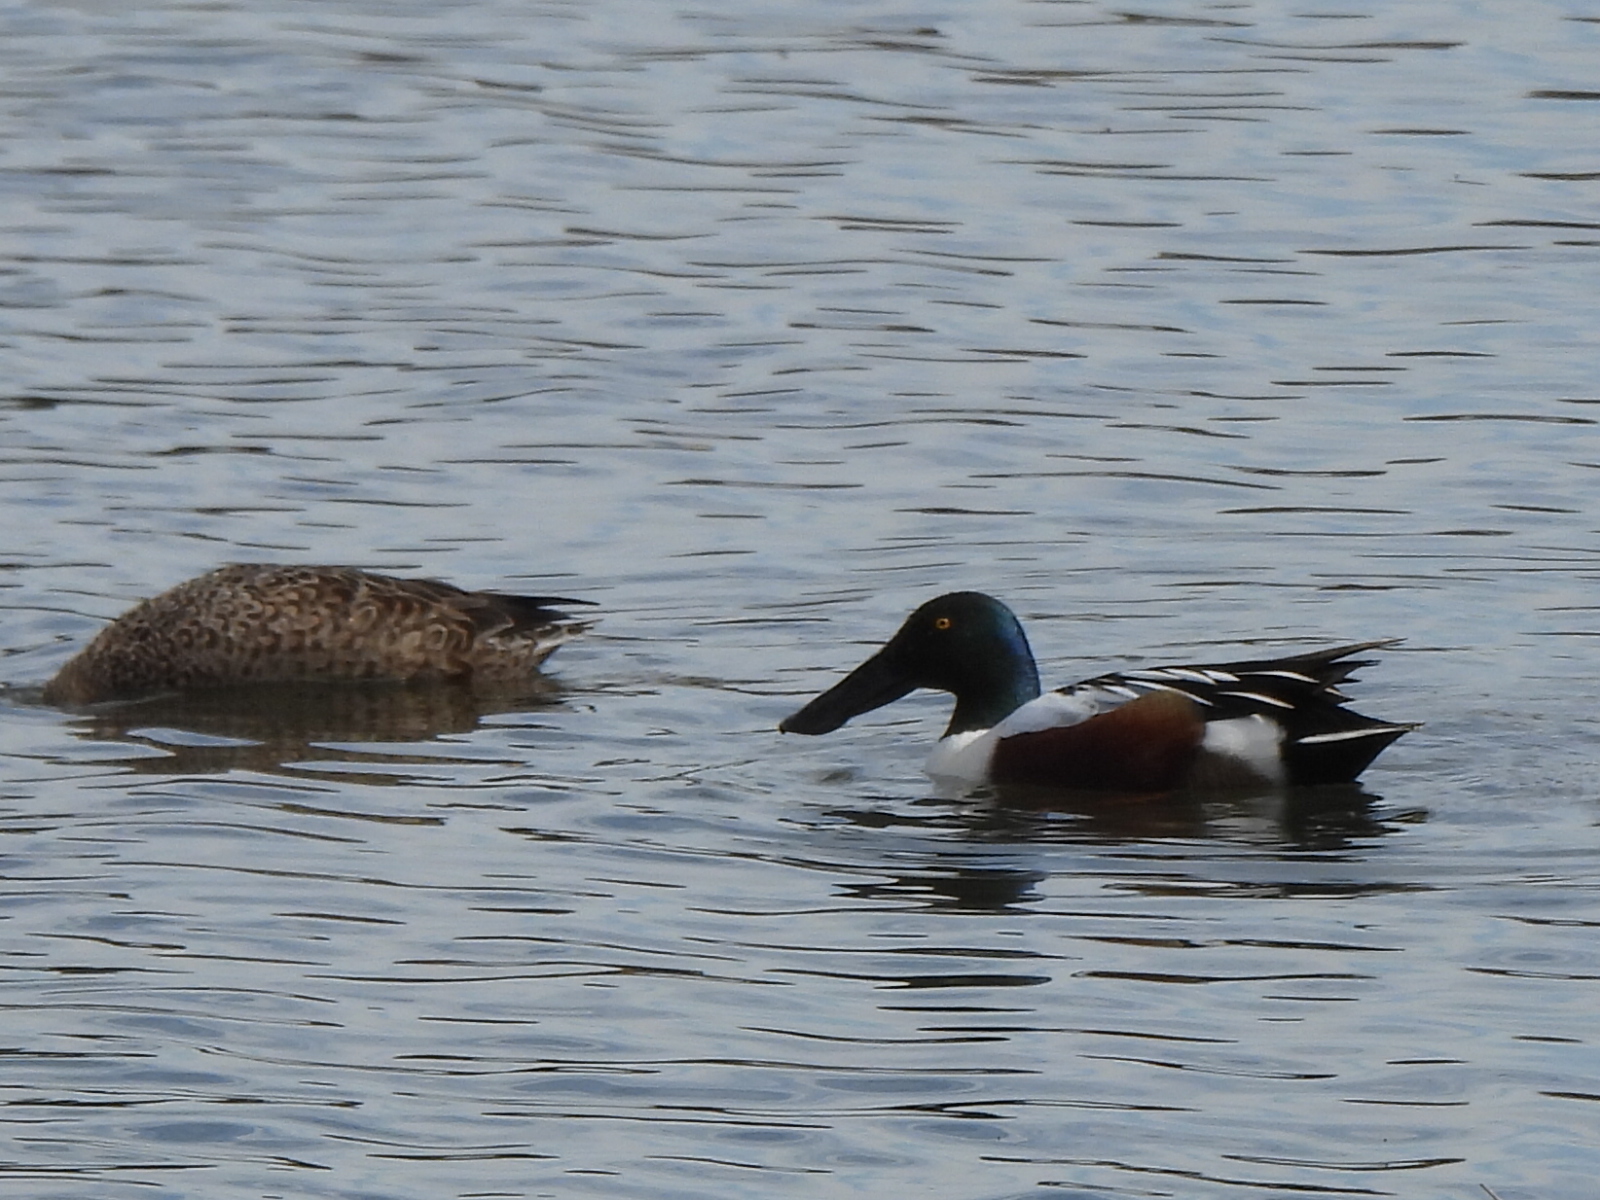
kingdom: Animalia
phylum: Chordata
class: Aves
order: Anseriformes
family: Anatidae
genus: Spatula
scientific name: Spatula clypeata
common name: Northern shoveler
